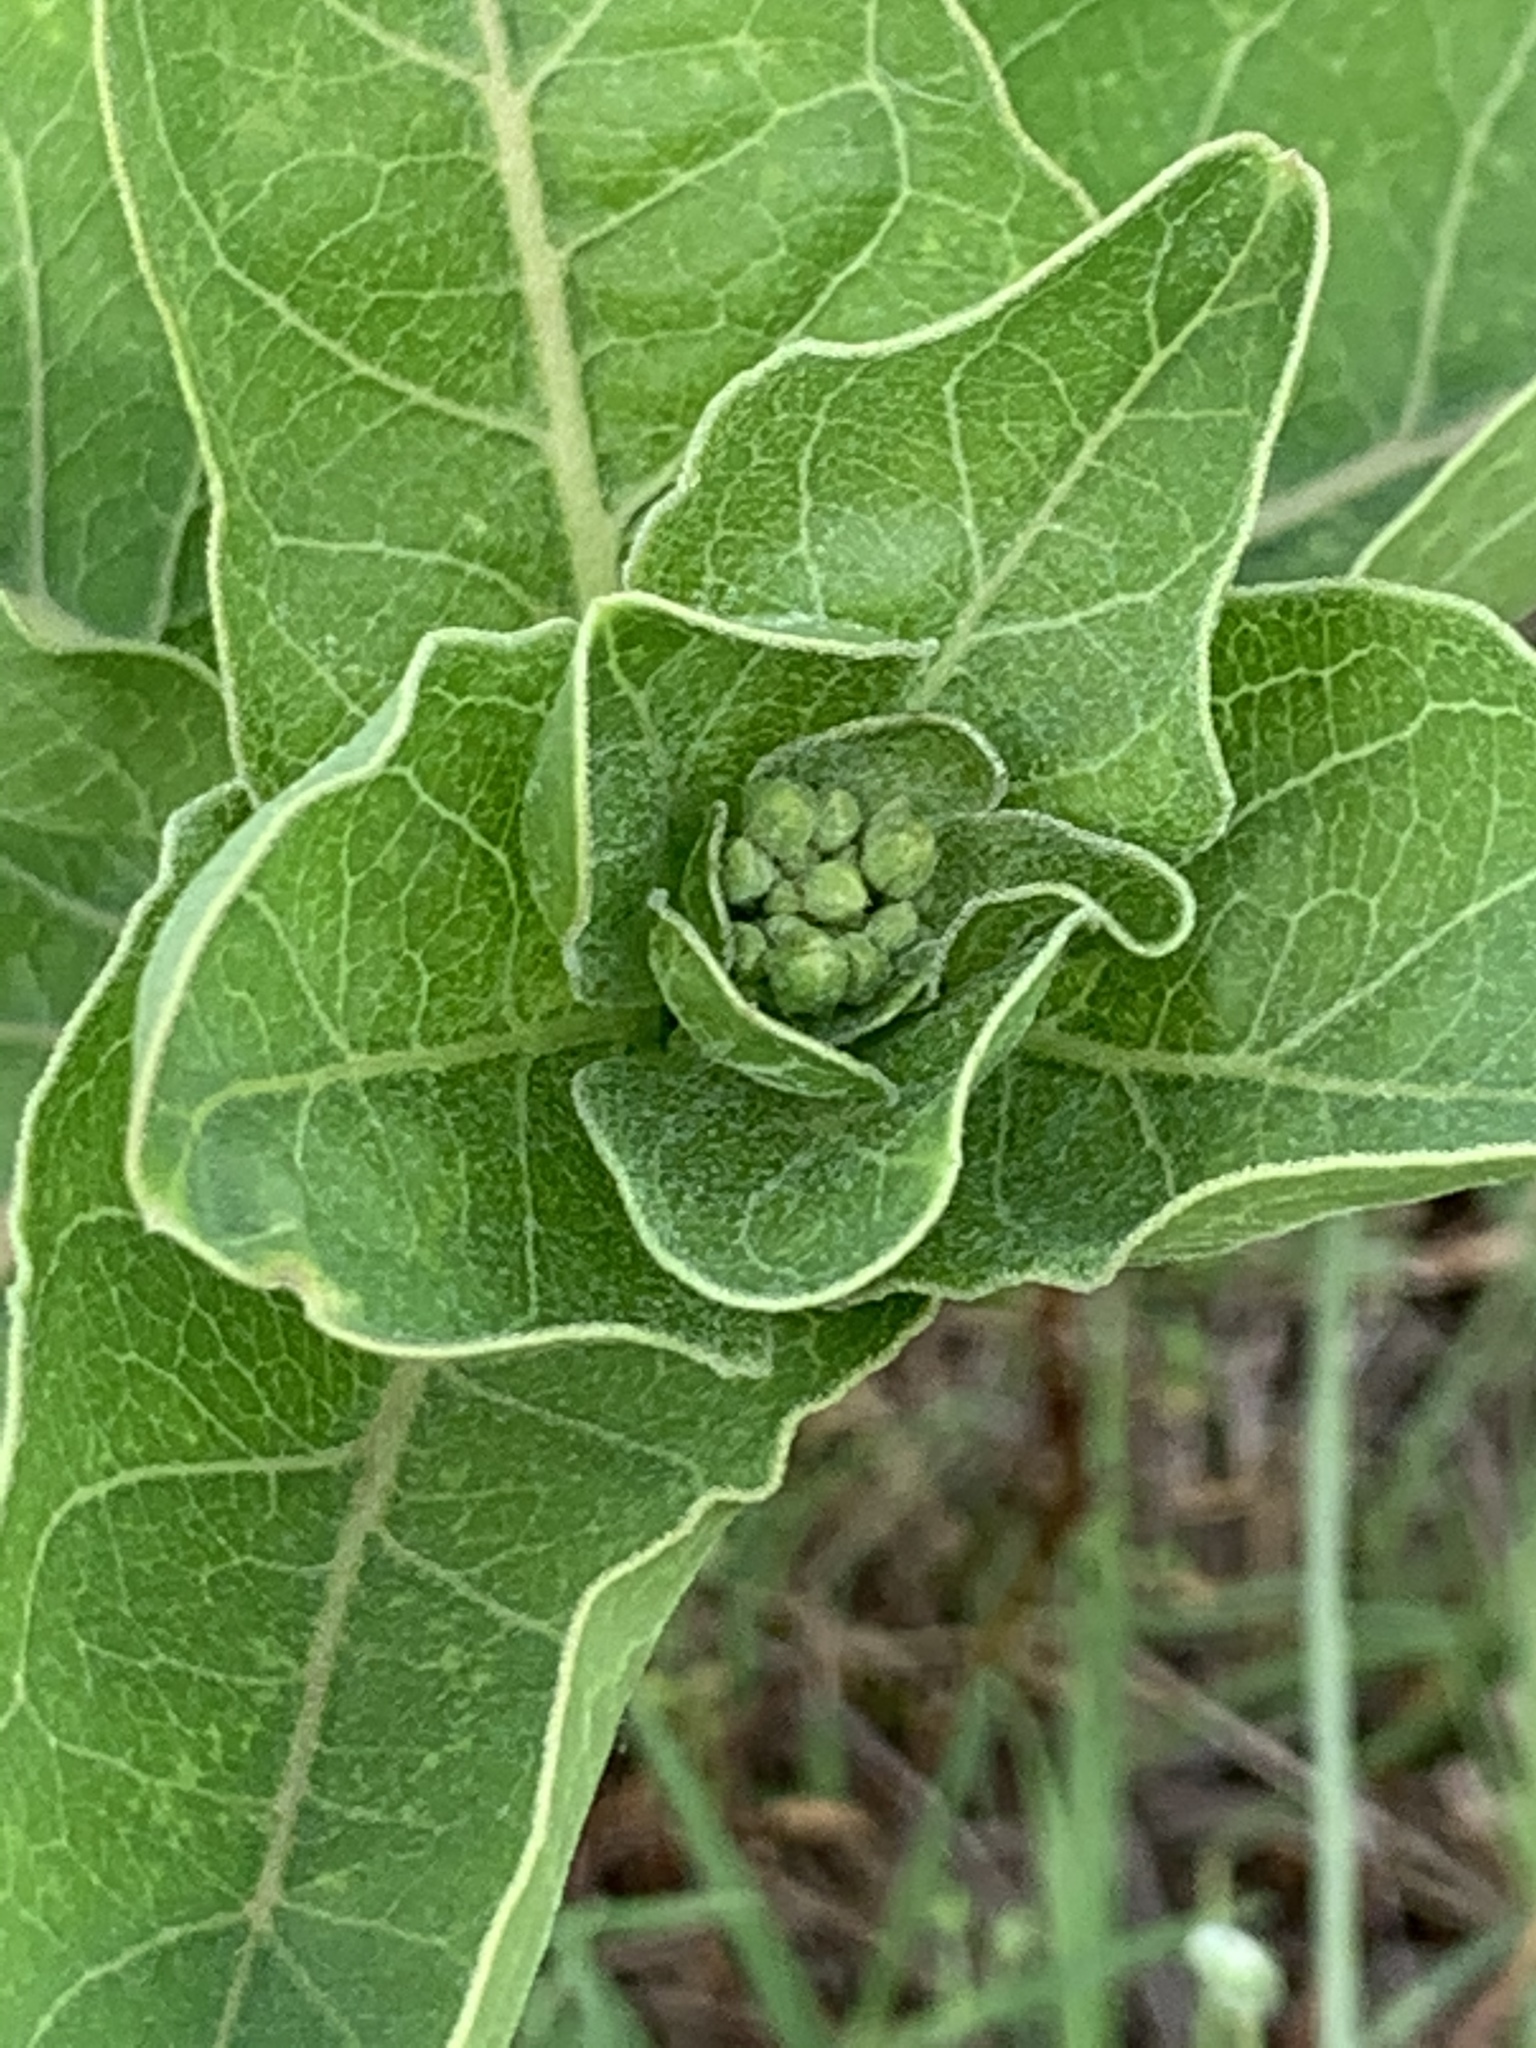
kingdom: Plantae
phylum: Tracheophyta
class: Magnoliopsida
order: Gentianales
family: Apocynaceae
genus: Asclepias
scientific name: Asclepias viridis
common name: Antelope-horns
